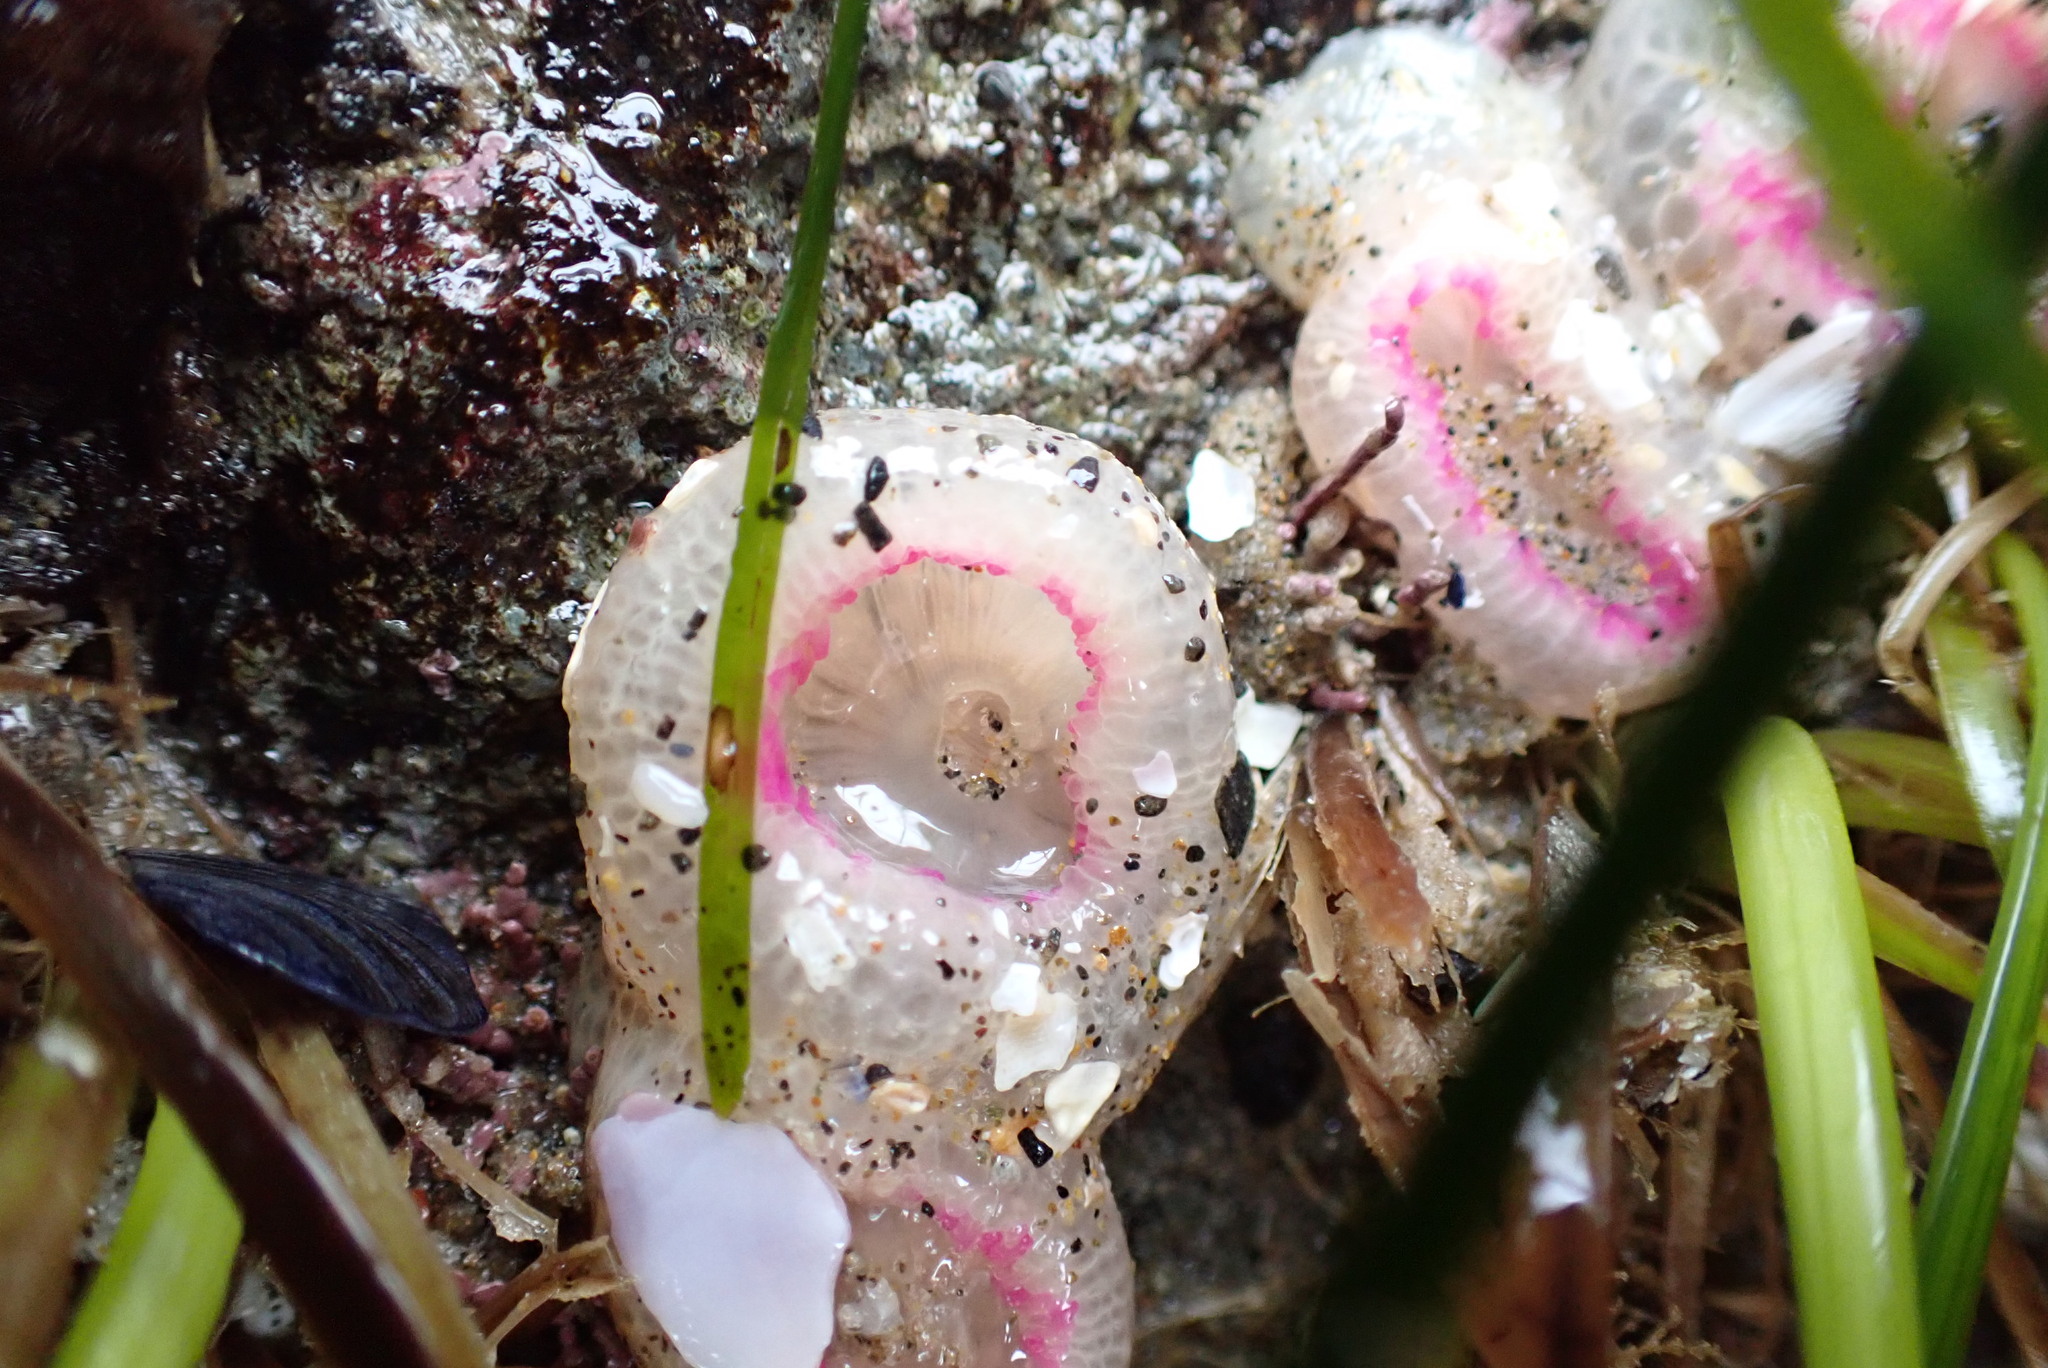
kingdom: Animalia
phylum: Cnidaria
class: Anthozoa
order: Actiniaria
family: Actiniidae
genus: Anthopleura
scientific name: Anthopleura elegantissima
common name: Clonal anemone
